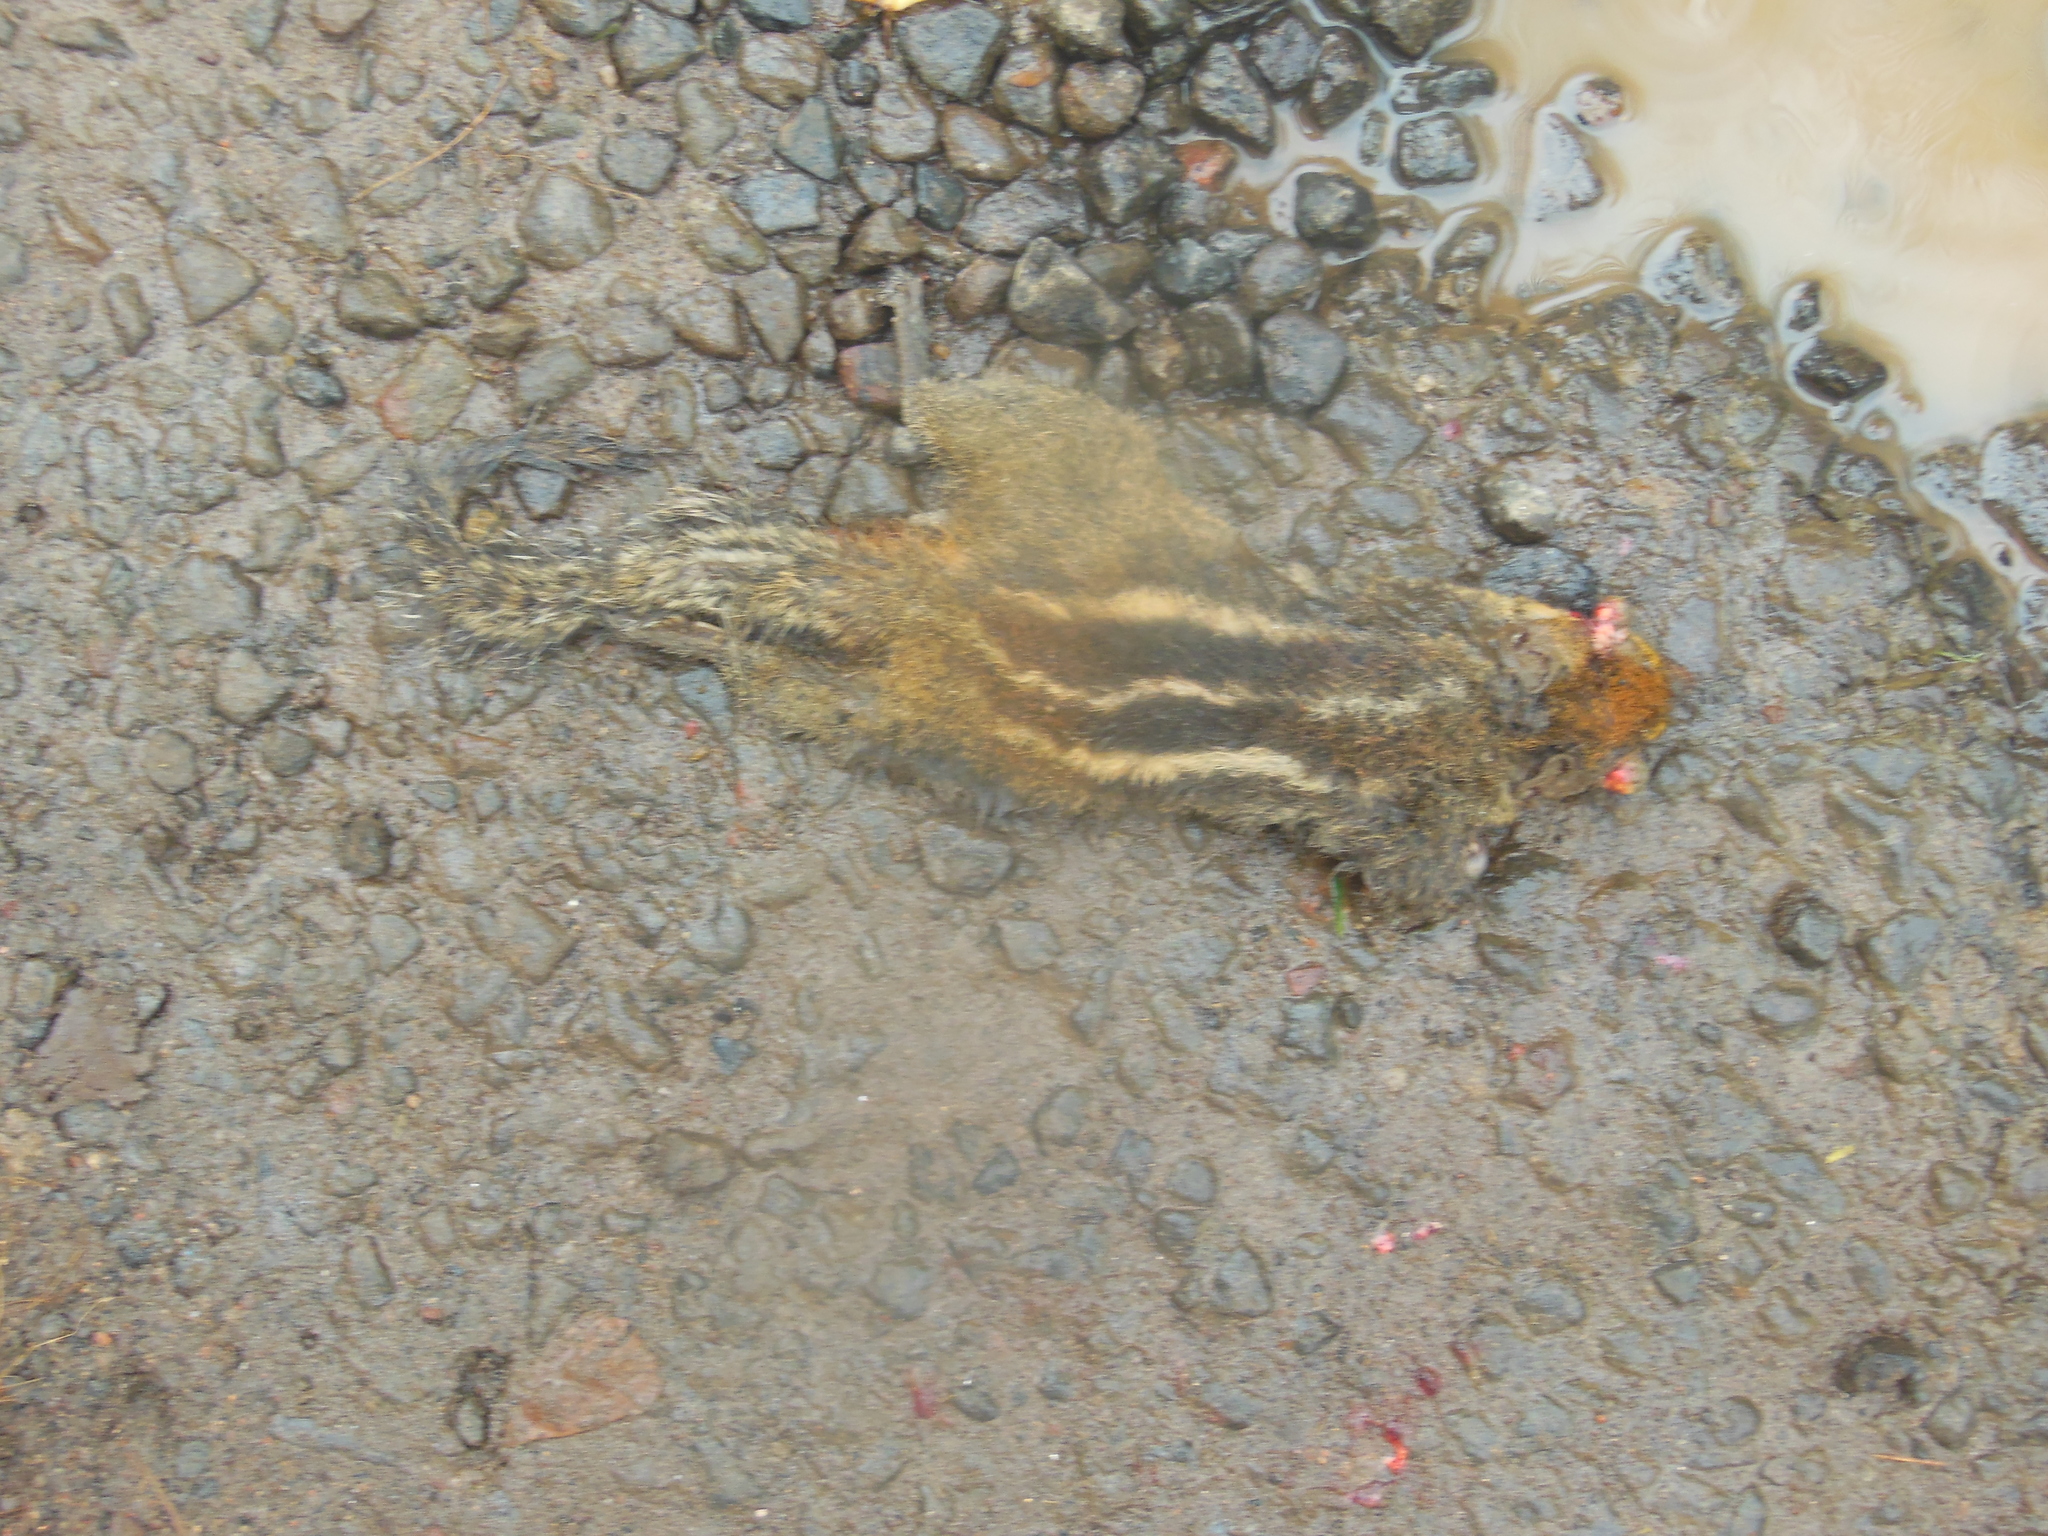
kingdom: Animalia
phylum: Chordata
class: Mammalia
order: Rodentia
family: Sciuridae
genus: Funambulus
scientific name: Funambulus palmarum
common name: Indian palm squirrel
